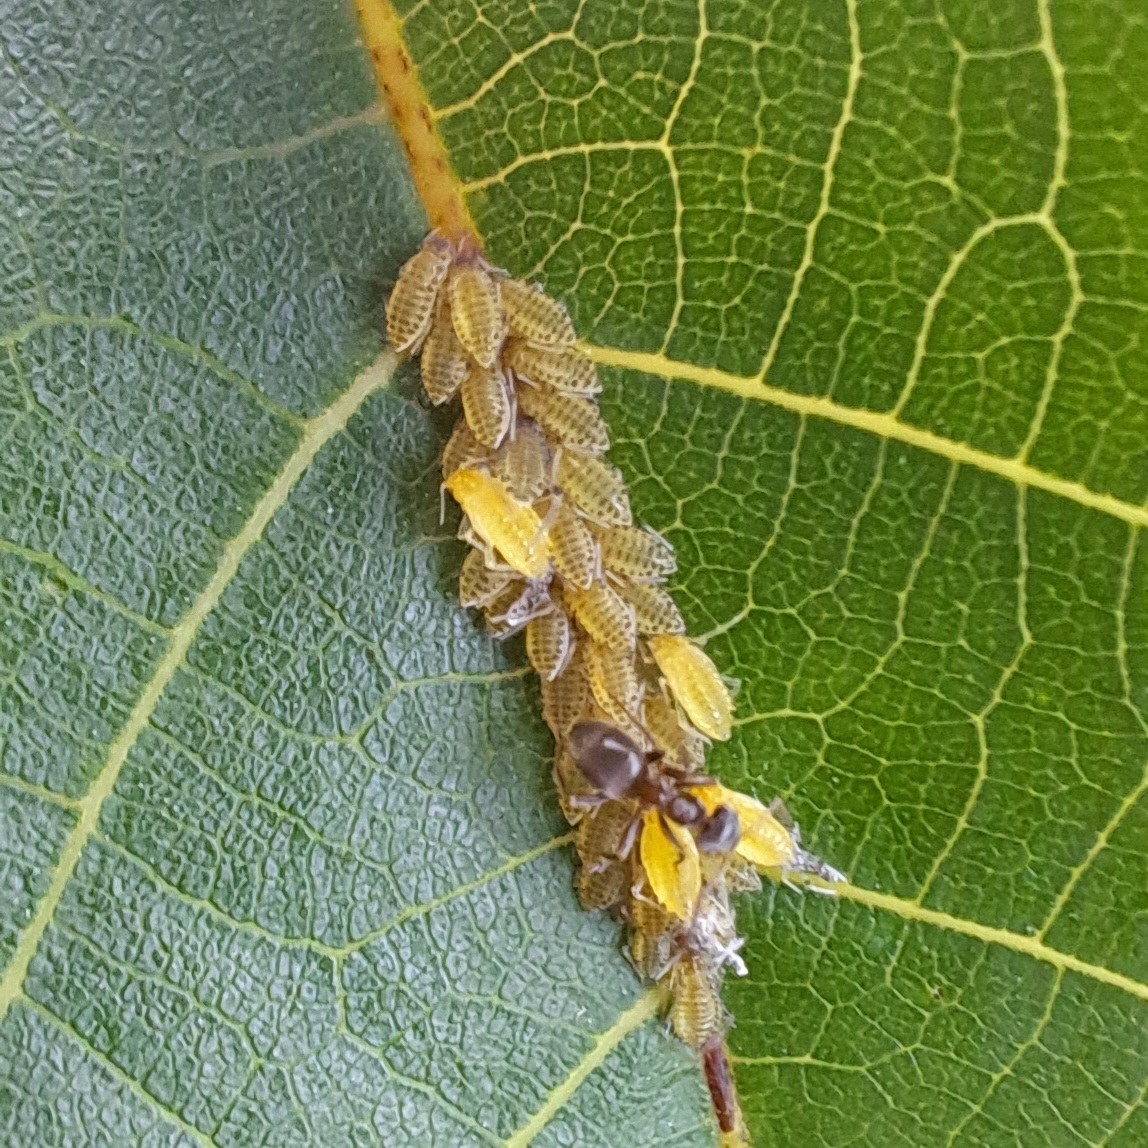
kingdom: Animalia
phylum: Arthropoda
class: Insecta
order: Hemiptera
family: Aphididae
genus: Panaphis
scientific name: Panaphis juglandis
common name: Large walnut aphid
